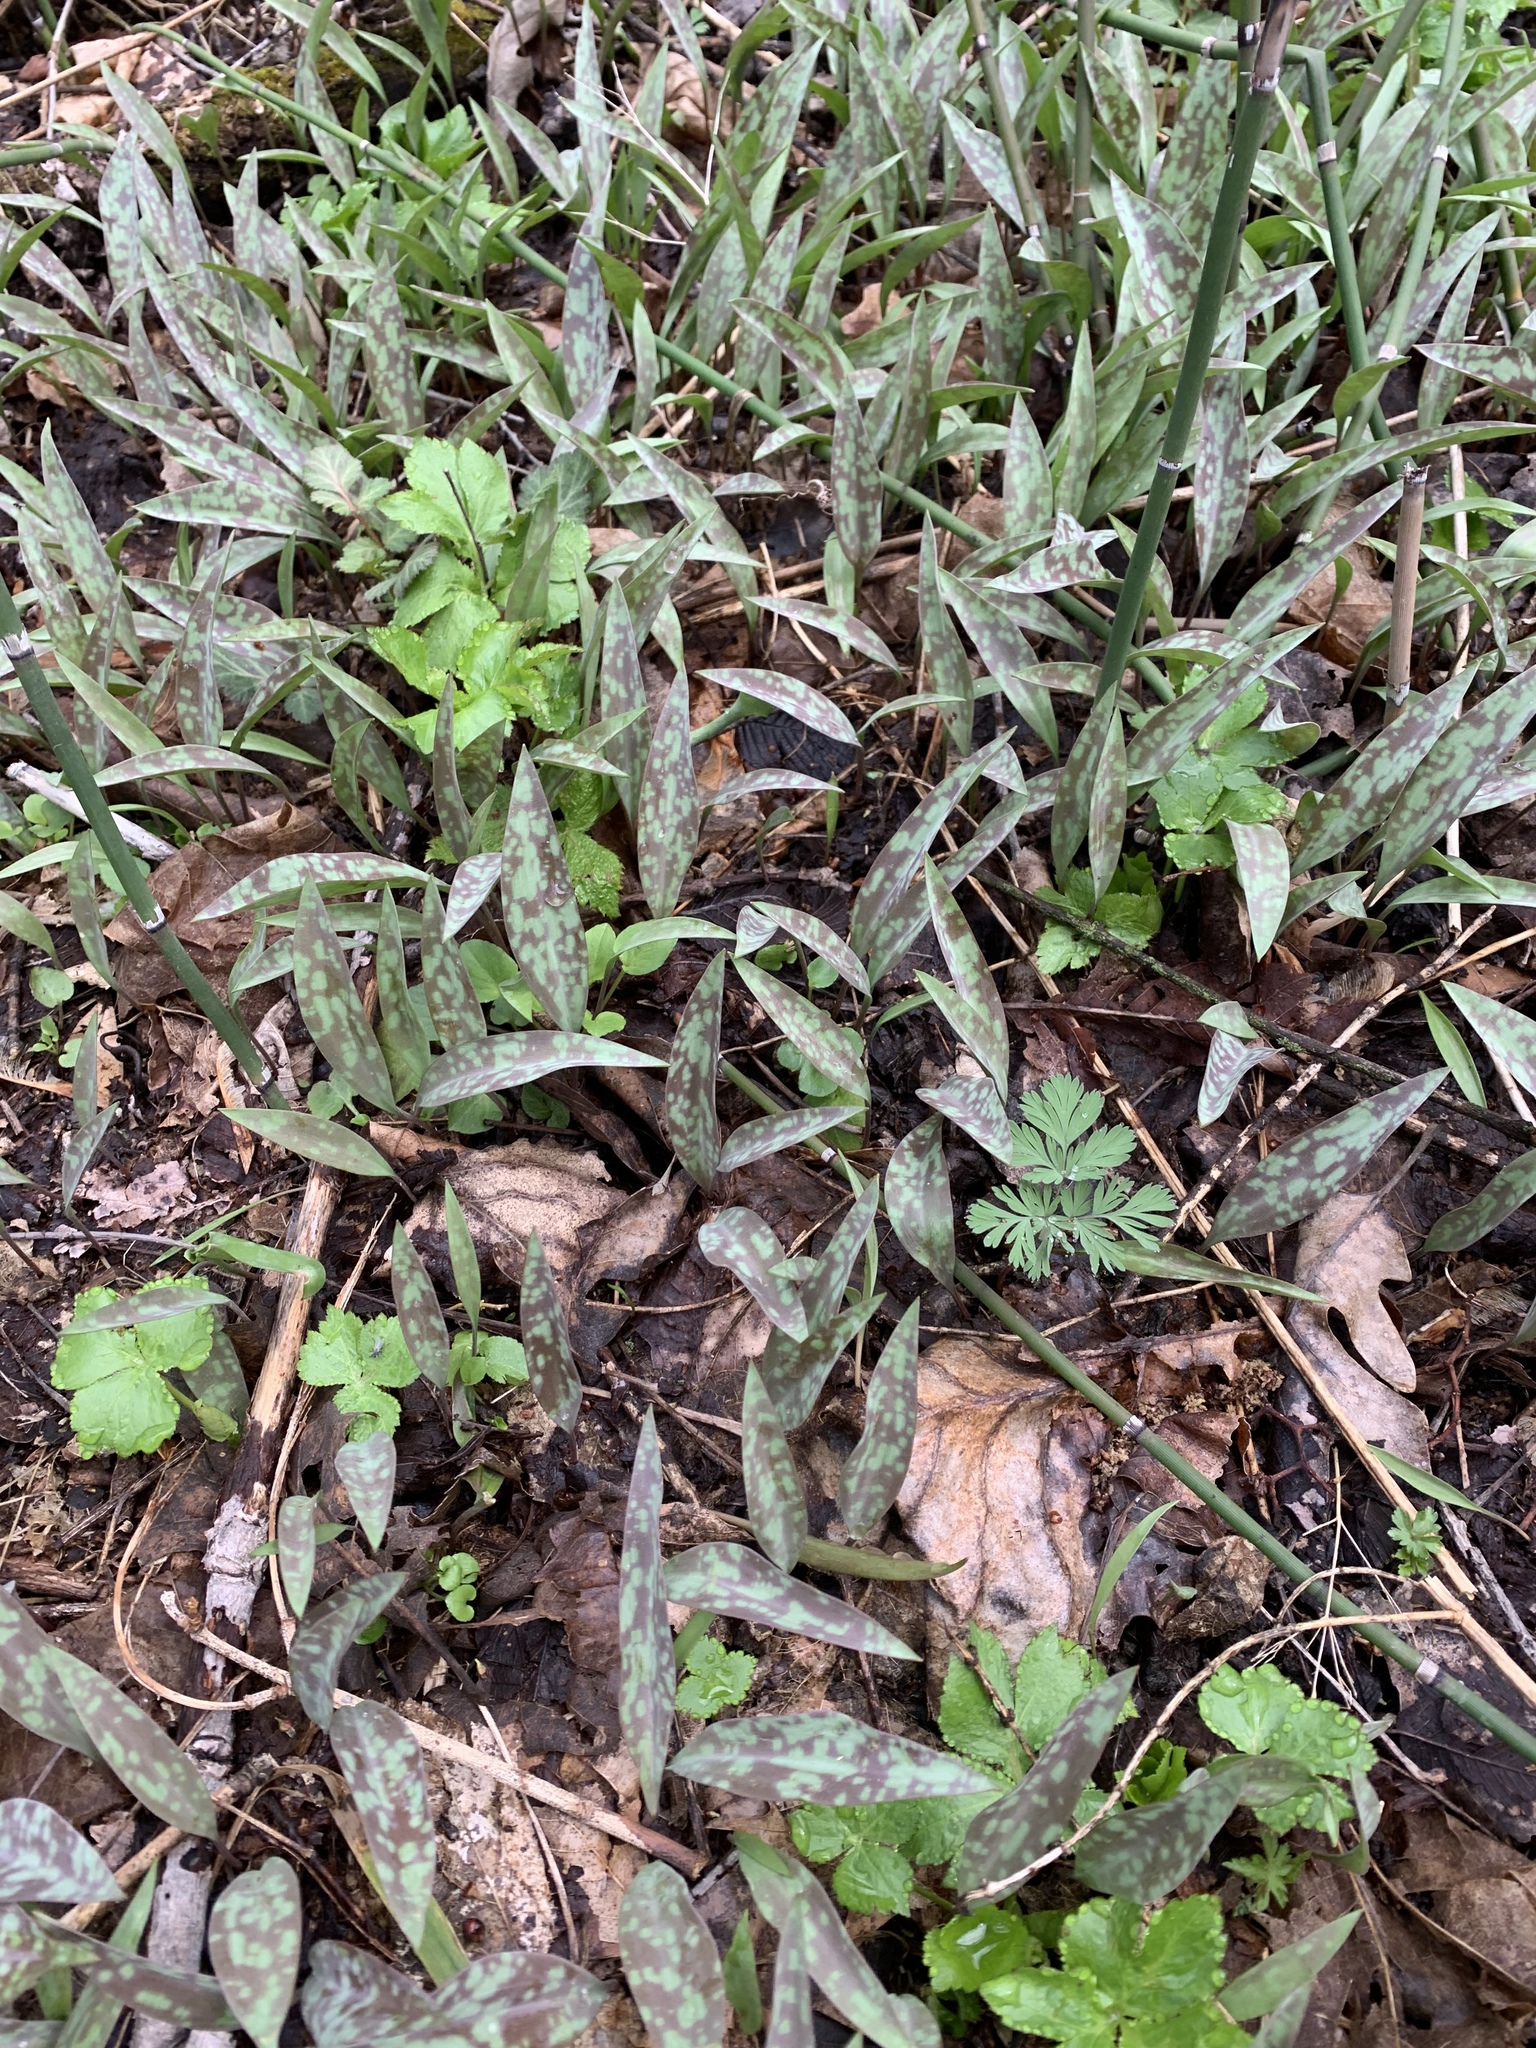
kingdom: Plantae
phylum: Tracheophyta
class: Liliopsida
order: Liliales
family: Liliaceae
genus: Erythronium
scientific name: Erythronium albidum
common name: White trout-lily
